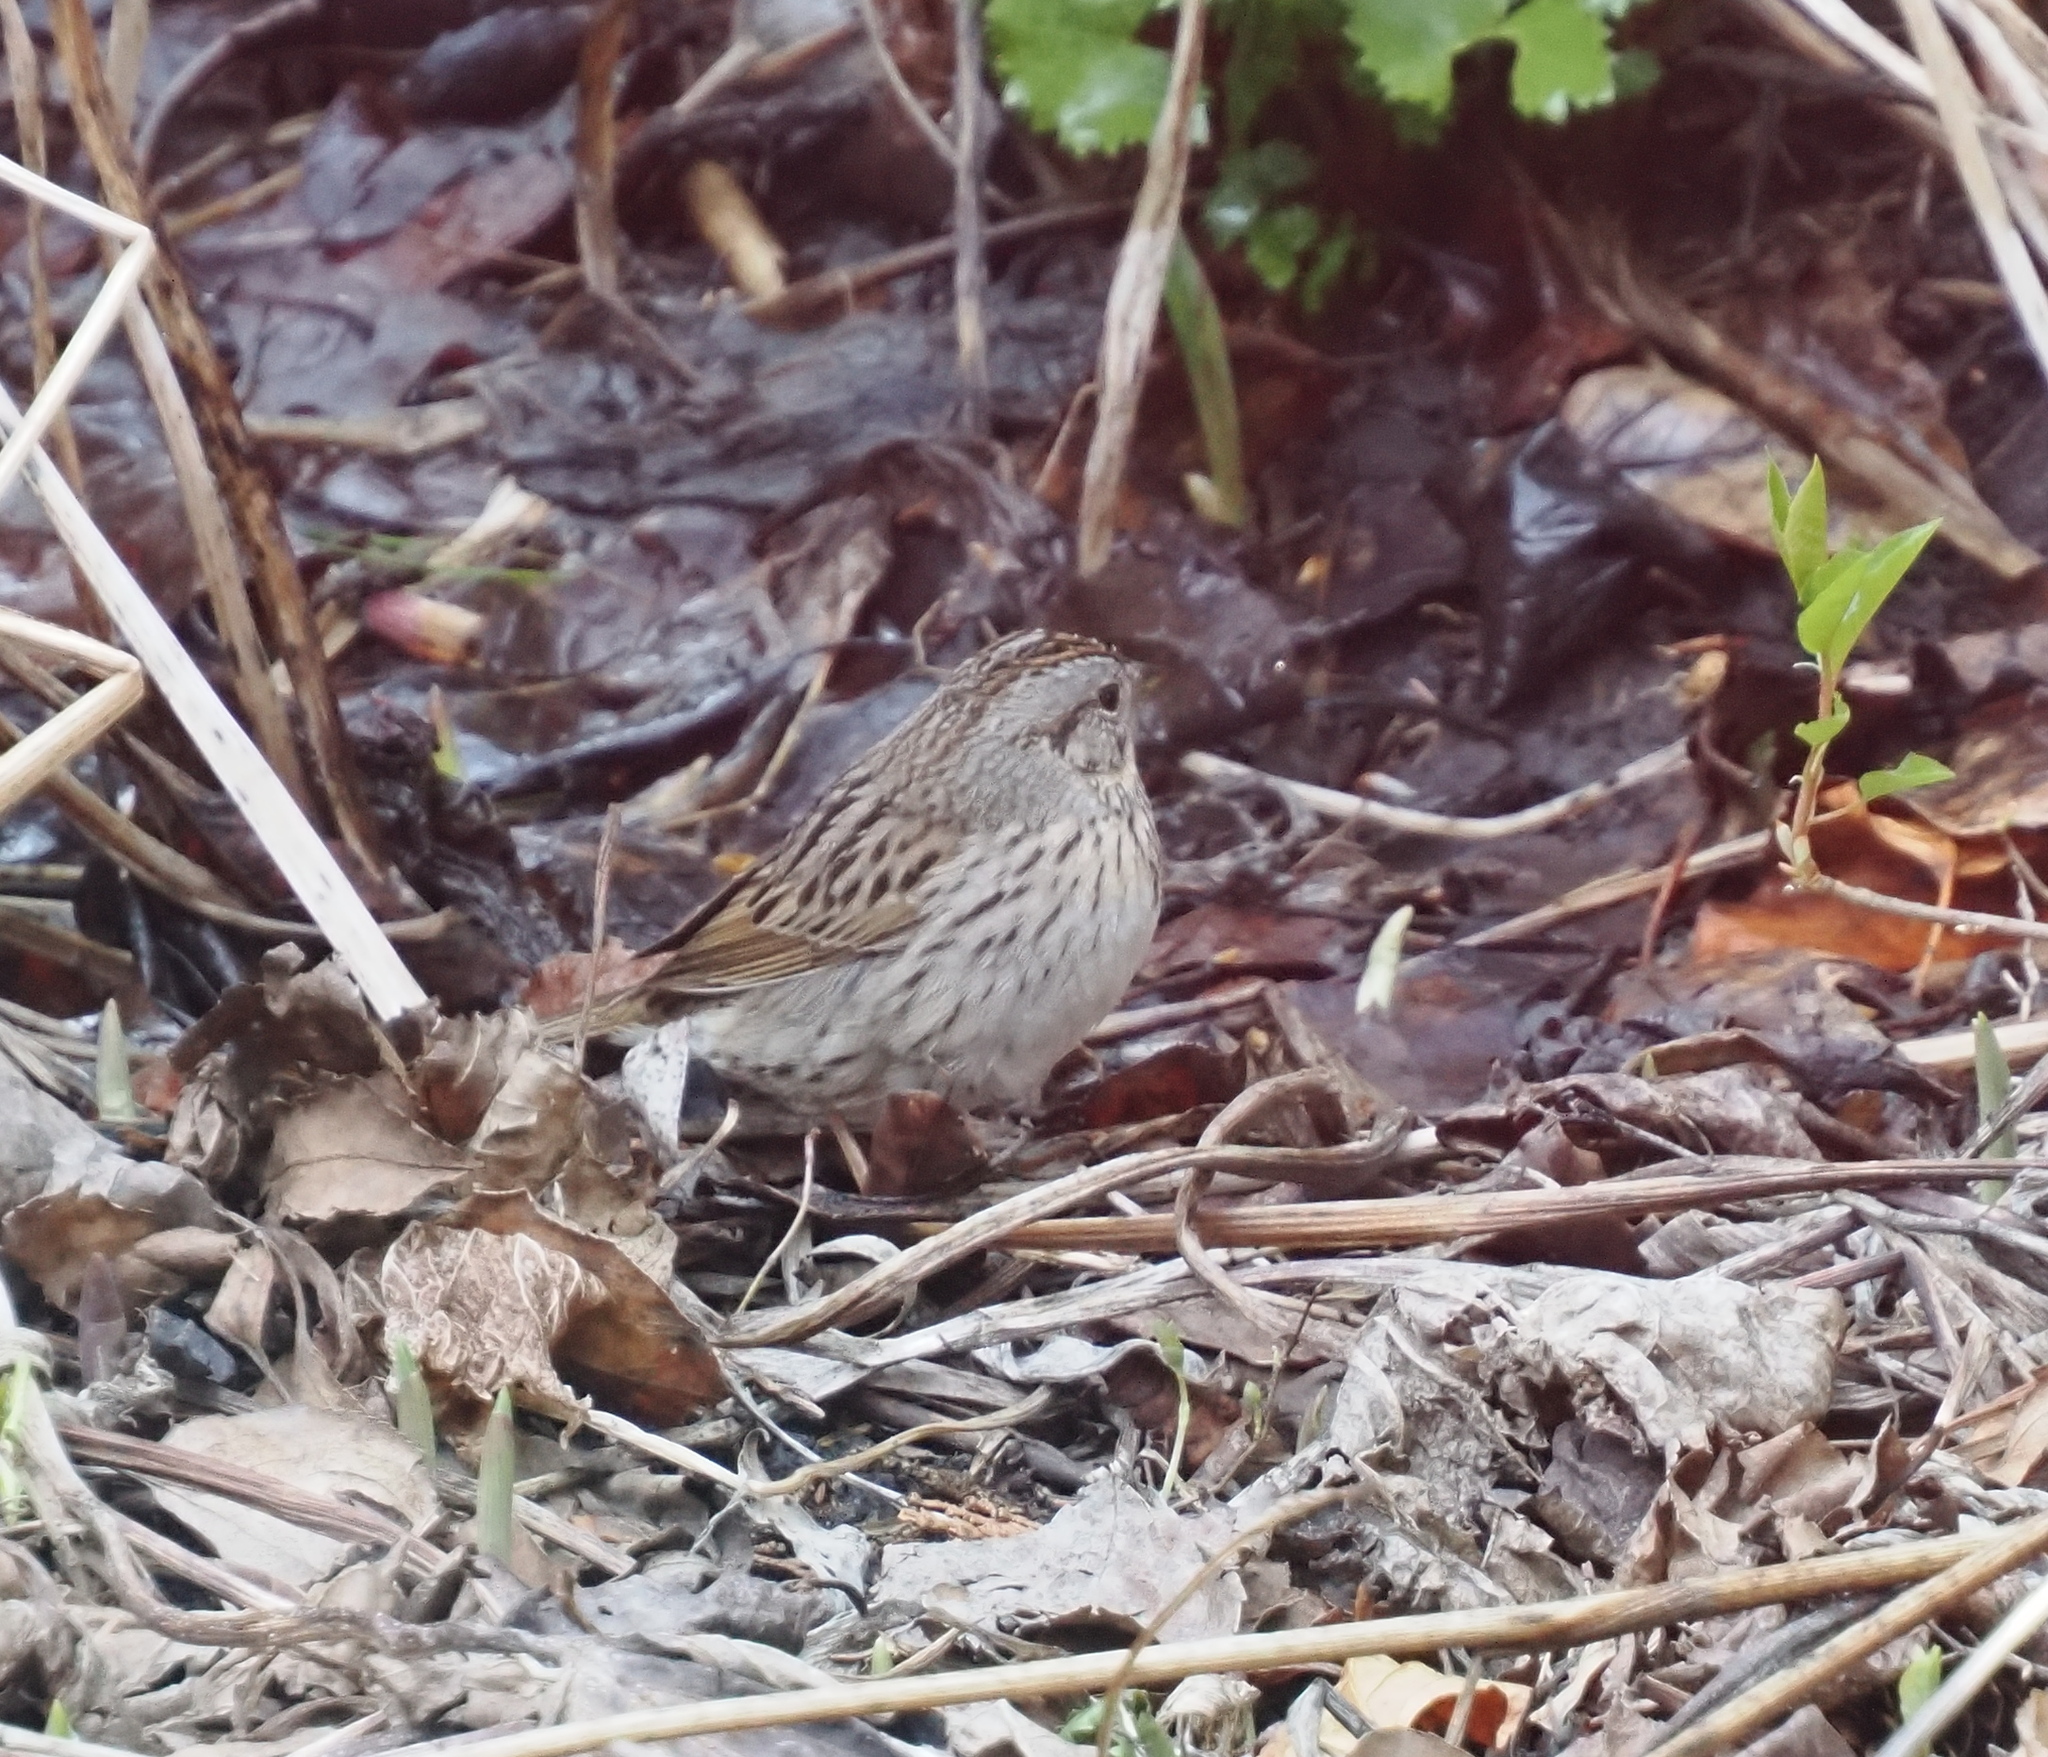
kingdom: Animalia
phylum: Chordata
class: Aves
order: Passeriformes
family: Passerellidae
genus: Melospiza
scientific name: Melospiza lincolnii
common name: Lincoln's sparrow
